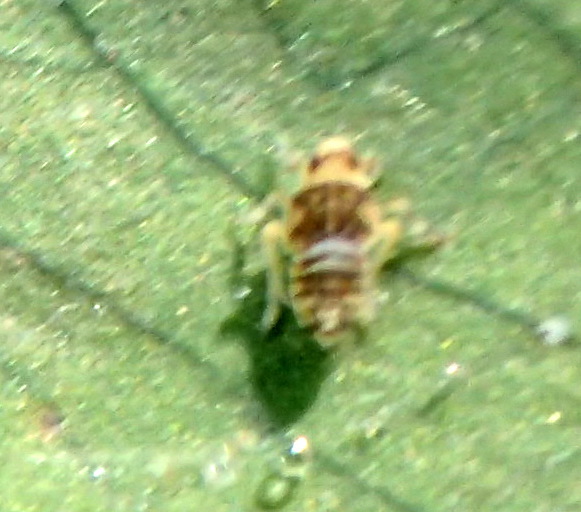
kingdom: Animalia
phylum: Arthropoda
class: Insecta
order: Hemiptera
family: Delphacidae
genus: Tarophagus
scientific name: Tarophagus colocasiae
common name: Taro planthopper
